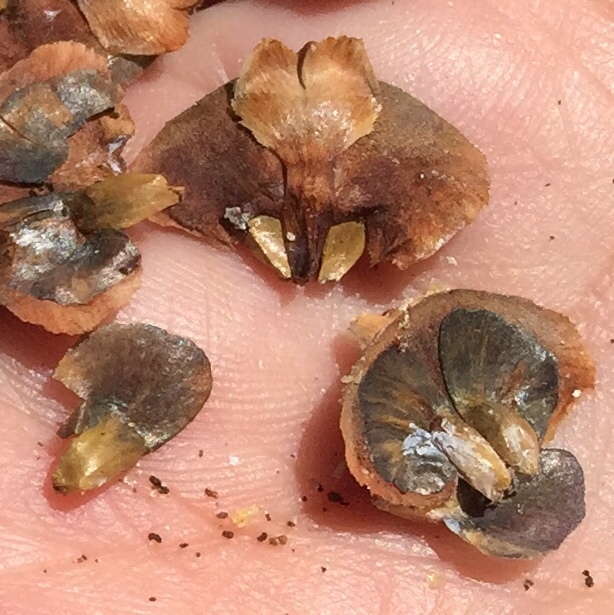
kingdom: Plantae
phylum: Tracheophyta
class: Pinopsida
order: Pinales
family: Pinaceae
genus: Abies
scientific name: Abies fraseri
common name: Fraser fir
